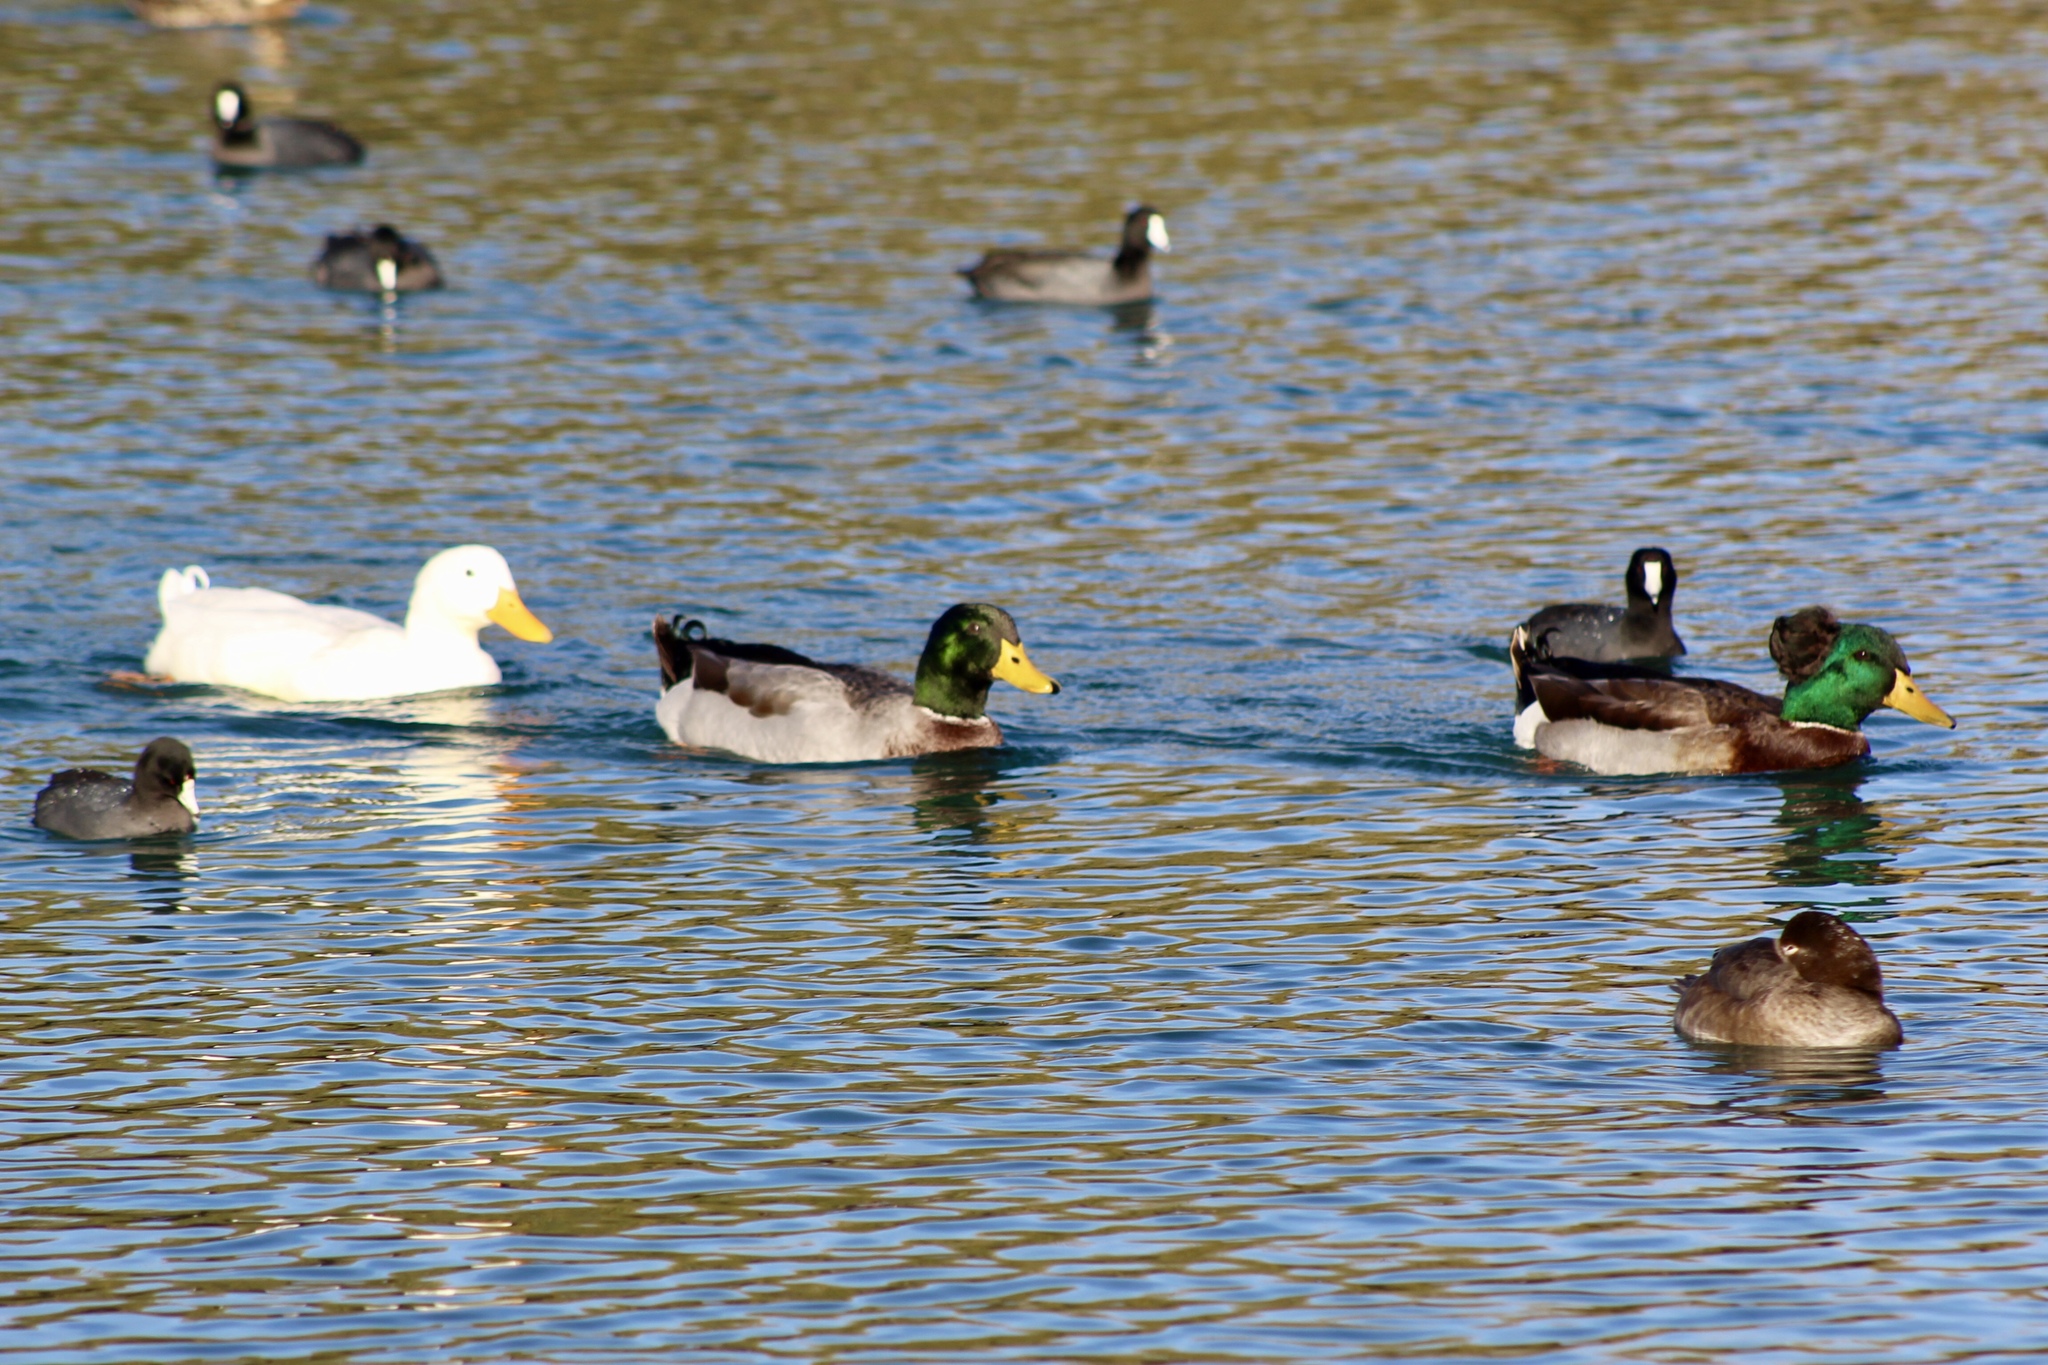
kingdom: Animalia
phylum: Chordata
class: Aves
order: Anseriformes
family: Anatidae
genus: Anas
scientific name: Anas platyrhynchos
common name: Mallard
